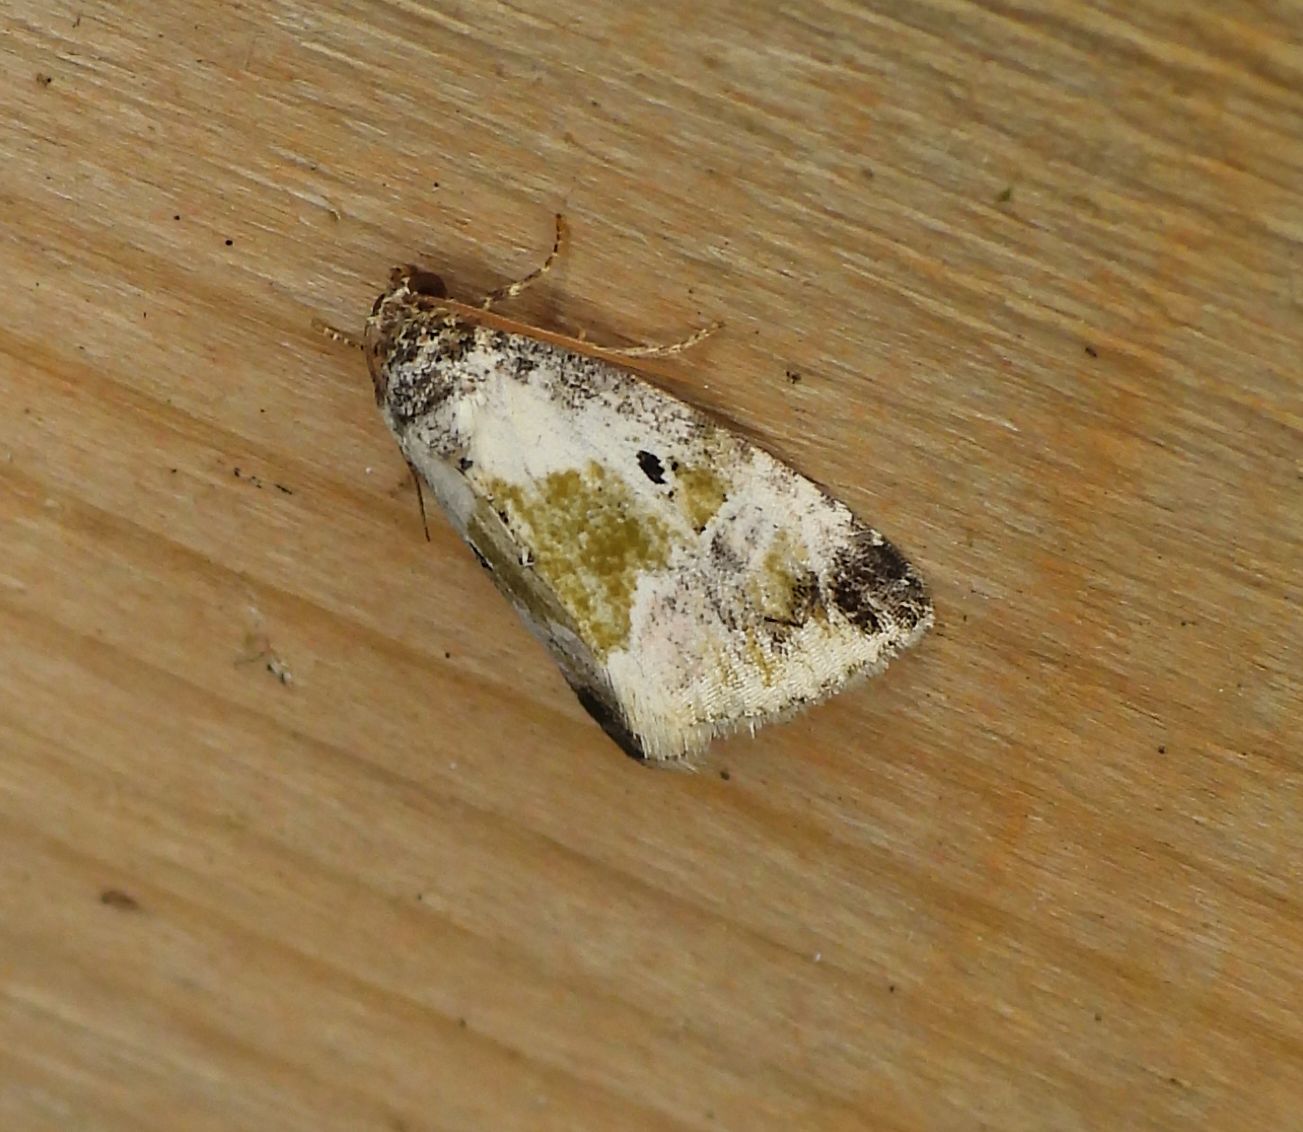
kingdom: Animalia
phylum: Arthropoda
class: Insecta
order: Lepidoptera
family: Noctuidae
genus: Maliattha
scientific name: Maliattha synochitis
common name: Black-dotted glyph
